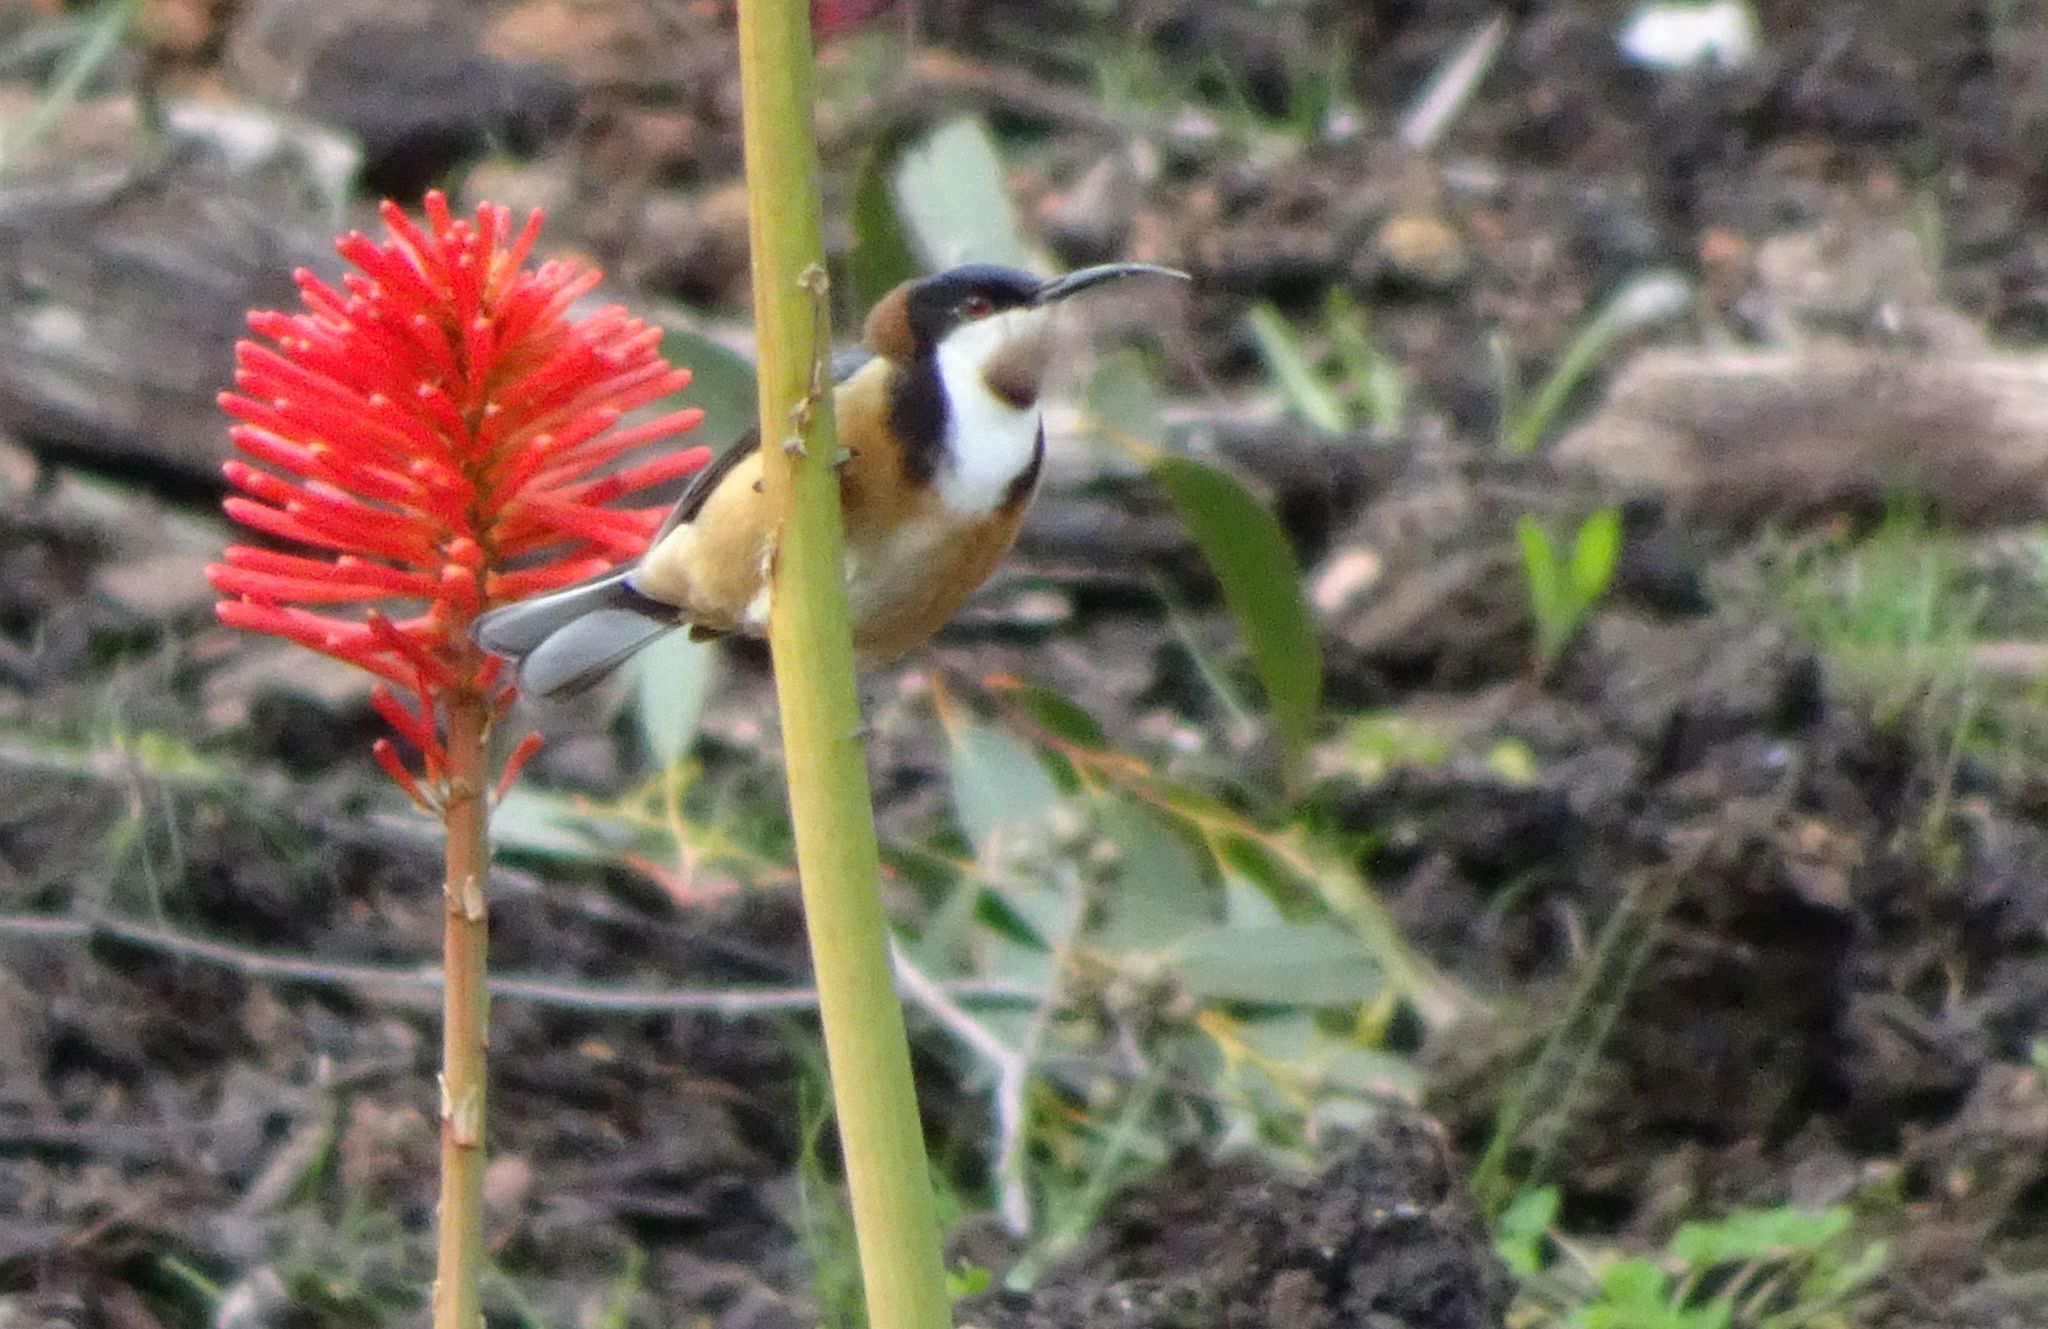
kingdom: Animalia
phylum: Chordata
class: Aves
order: Passeriformes
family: Meliphagidae
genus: Acanthorhynchus
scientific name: Acanthorhynchus tenuirostris
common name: Eastern spinebill
